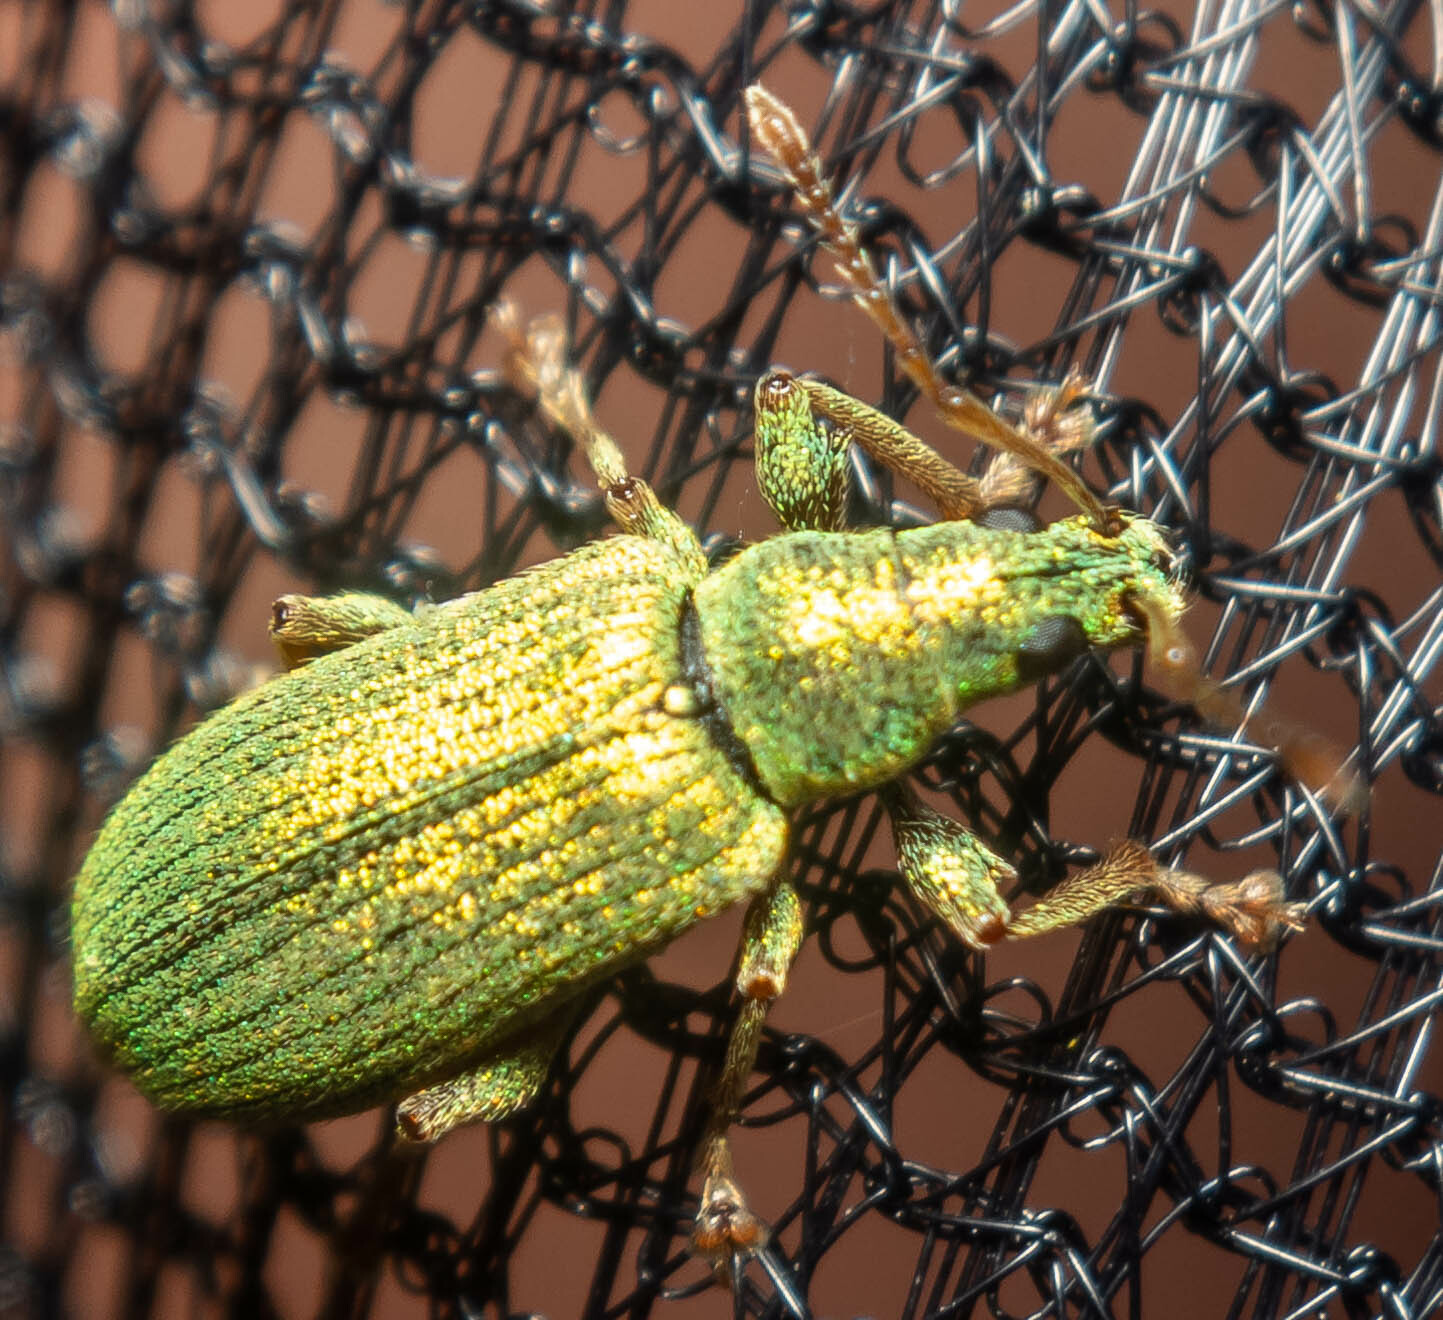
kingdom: Animalia
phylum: Arthropoda
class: Insecta
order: Coleoptera
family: Curculionidae
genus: Phyllobius
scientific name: Phyllobius argentatus
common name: Silver-green leaf weevil
